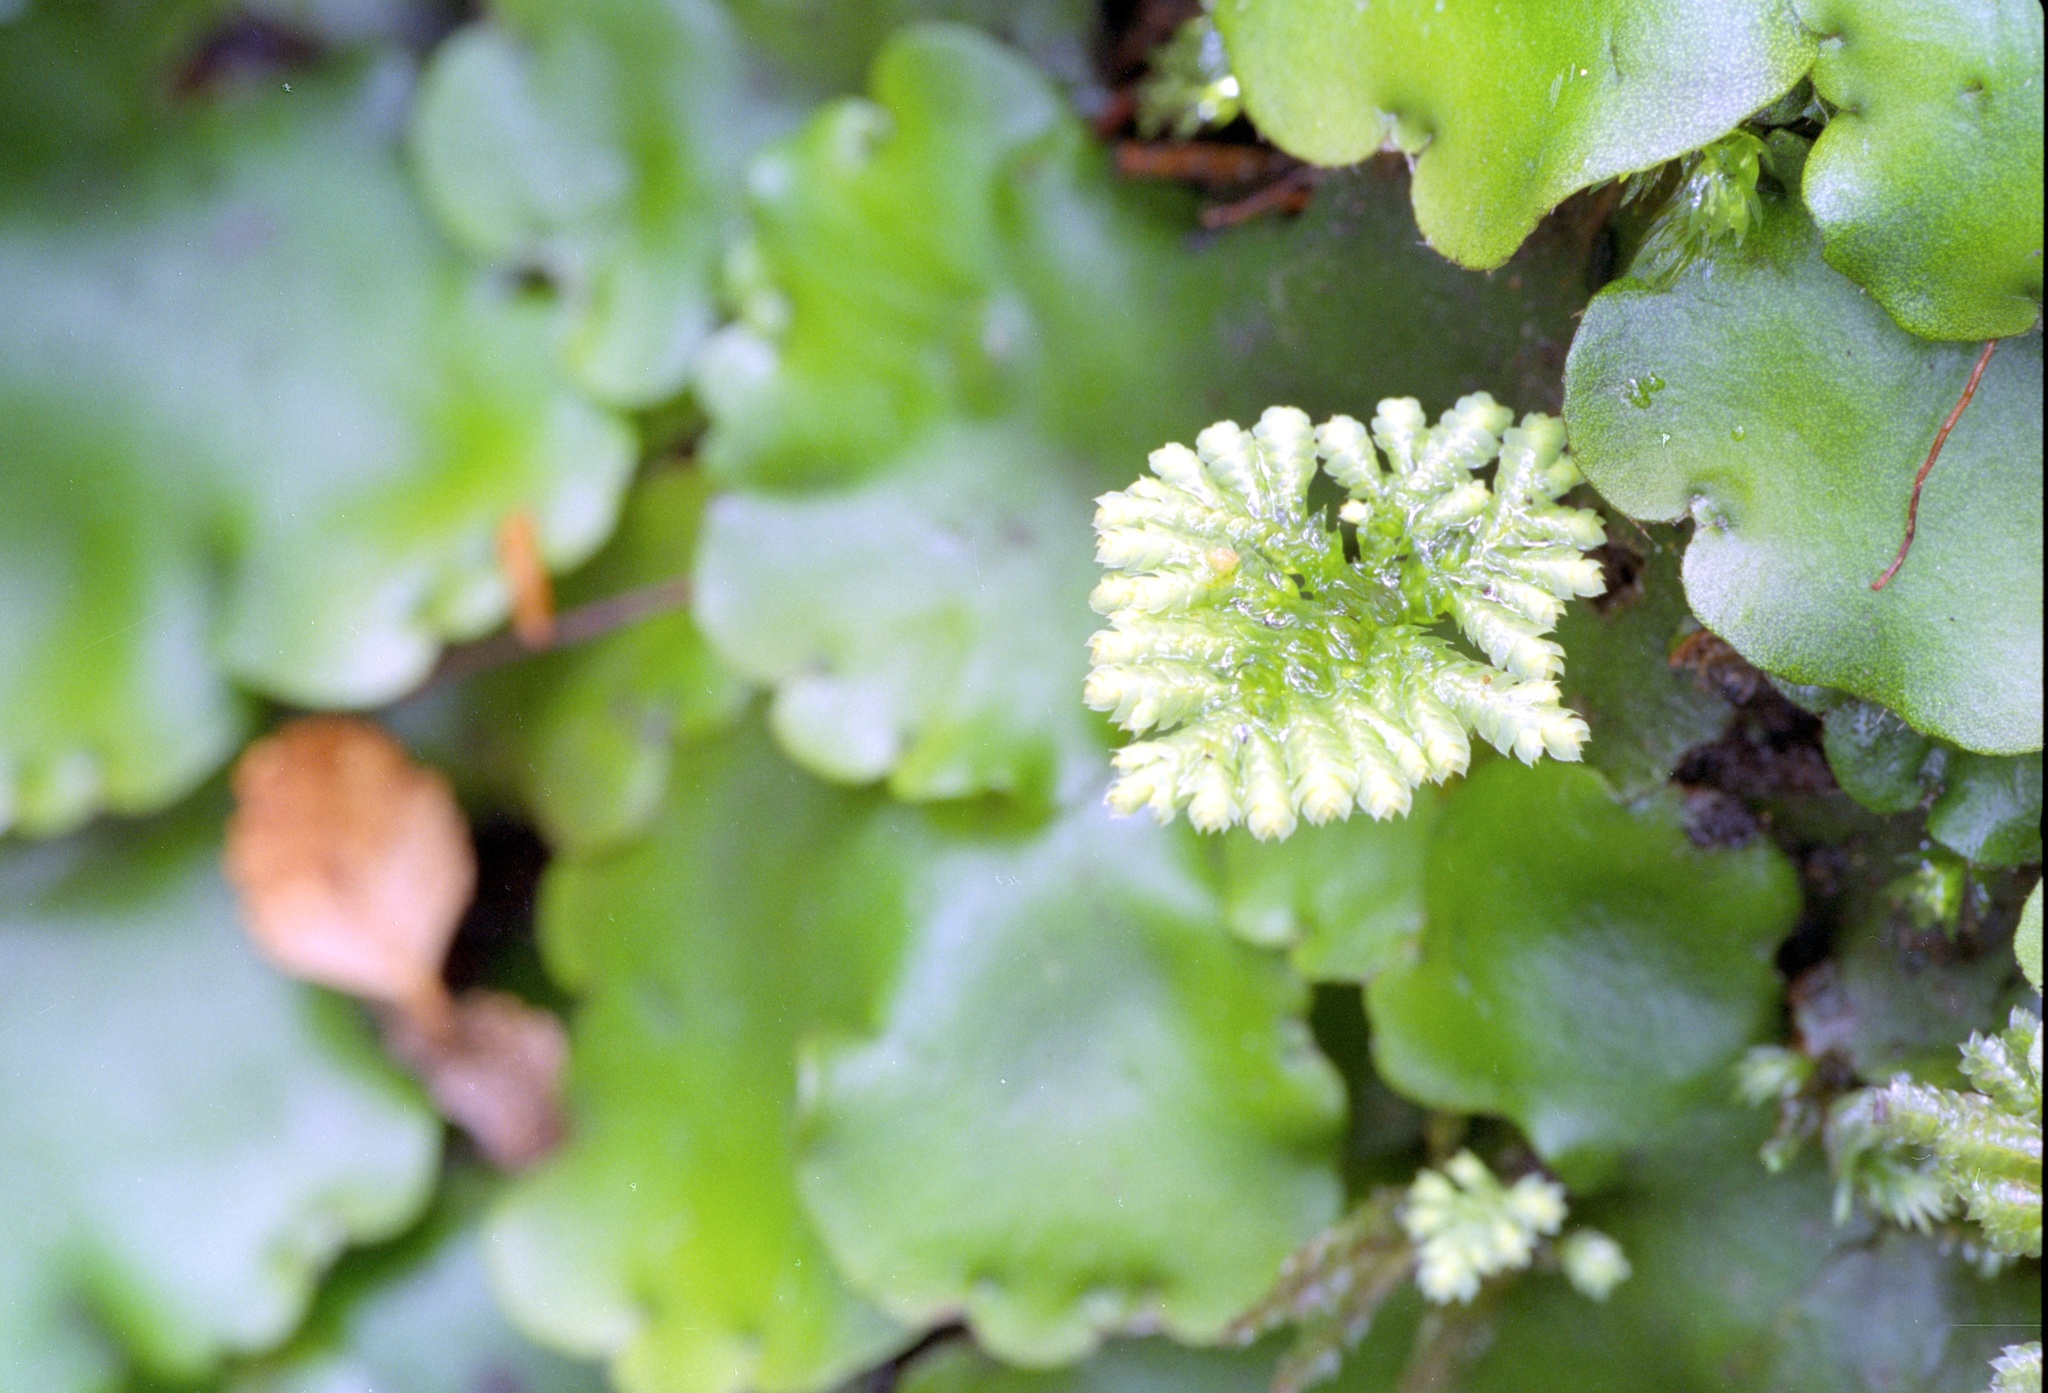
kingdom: Plantae
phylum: Bryophyta
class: Bryopsida
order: Hypopterygiales
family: Hypopterygiaceae
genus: Hypopterygium
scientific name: Hypopterygium tamarisci
